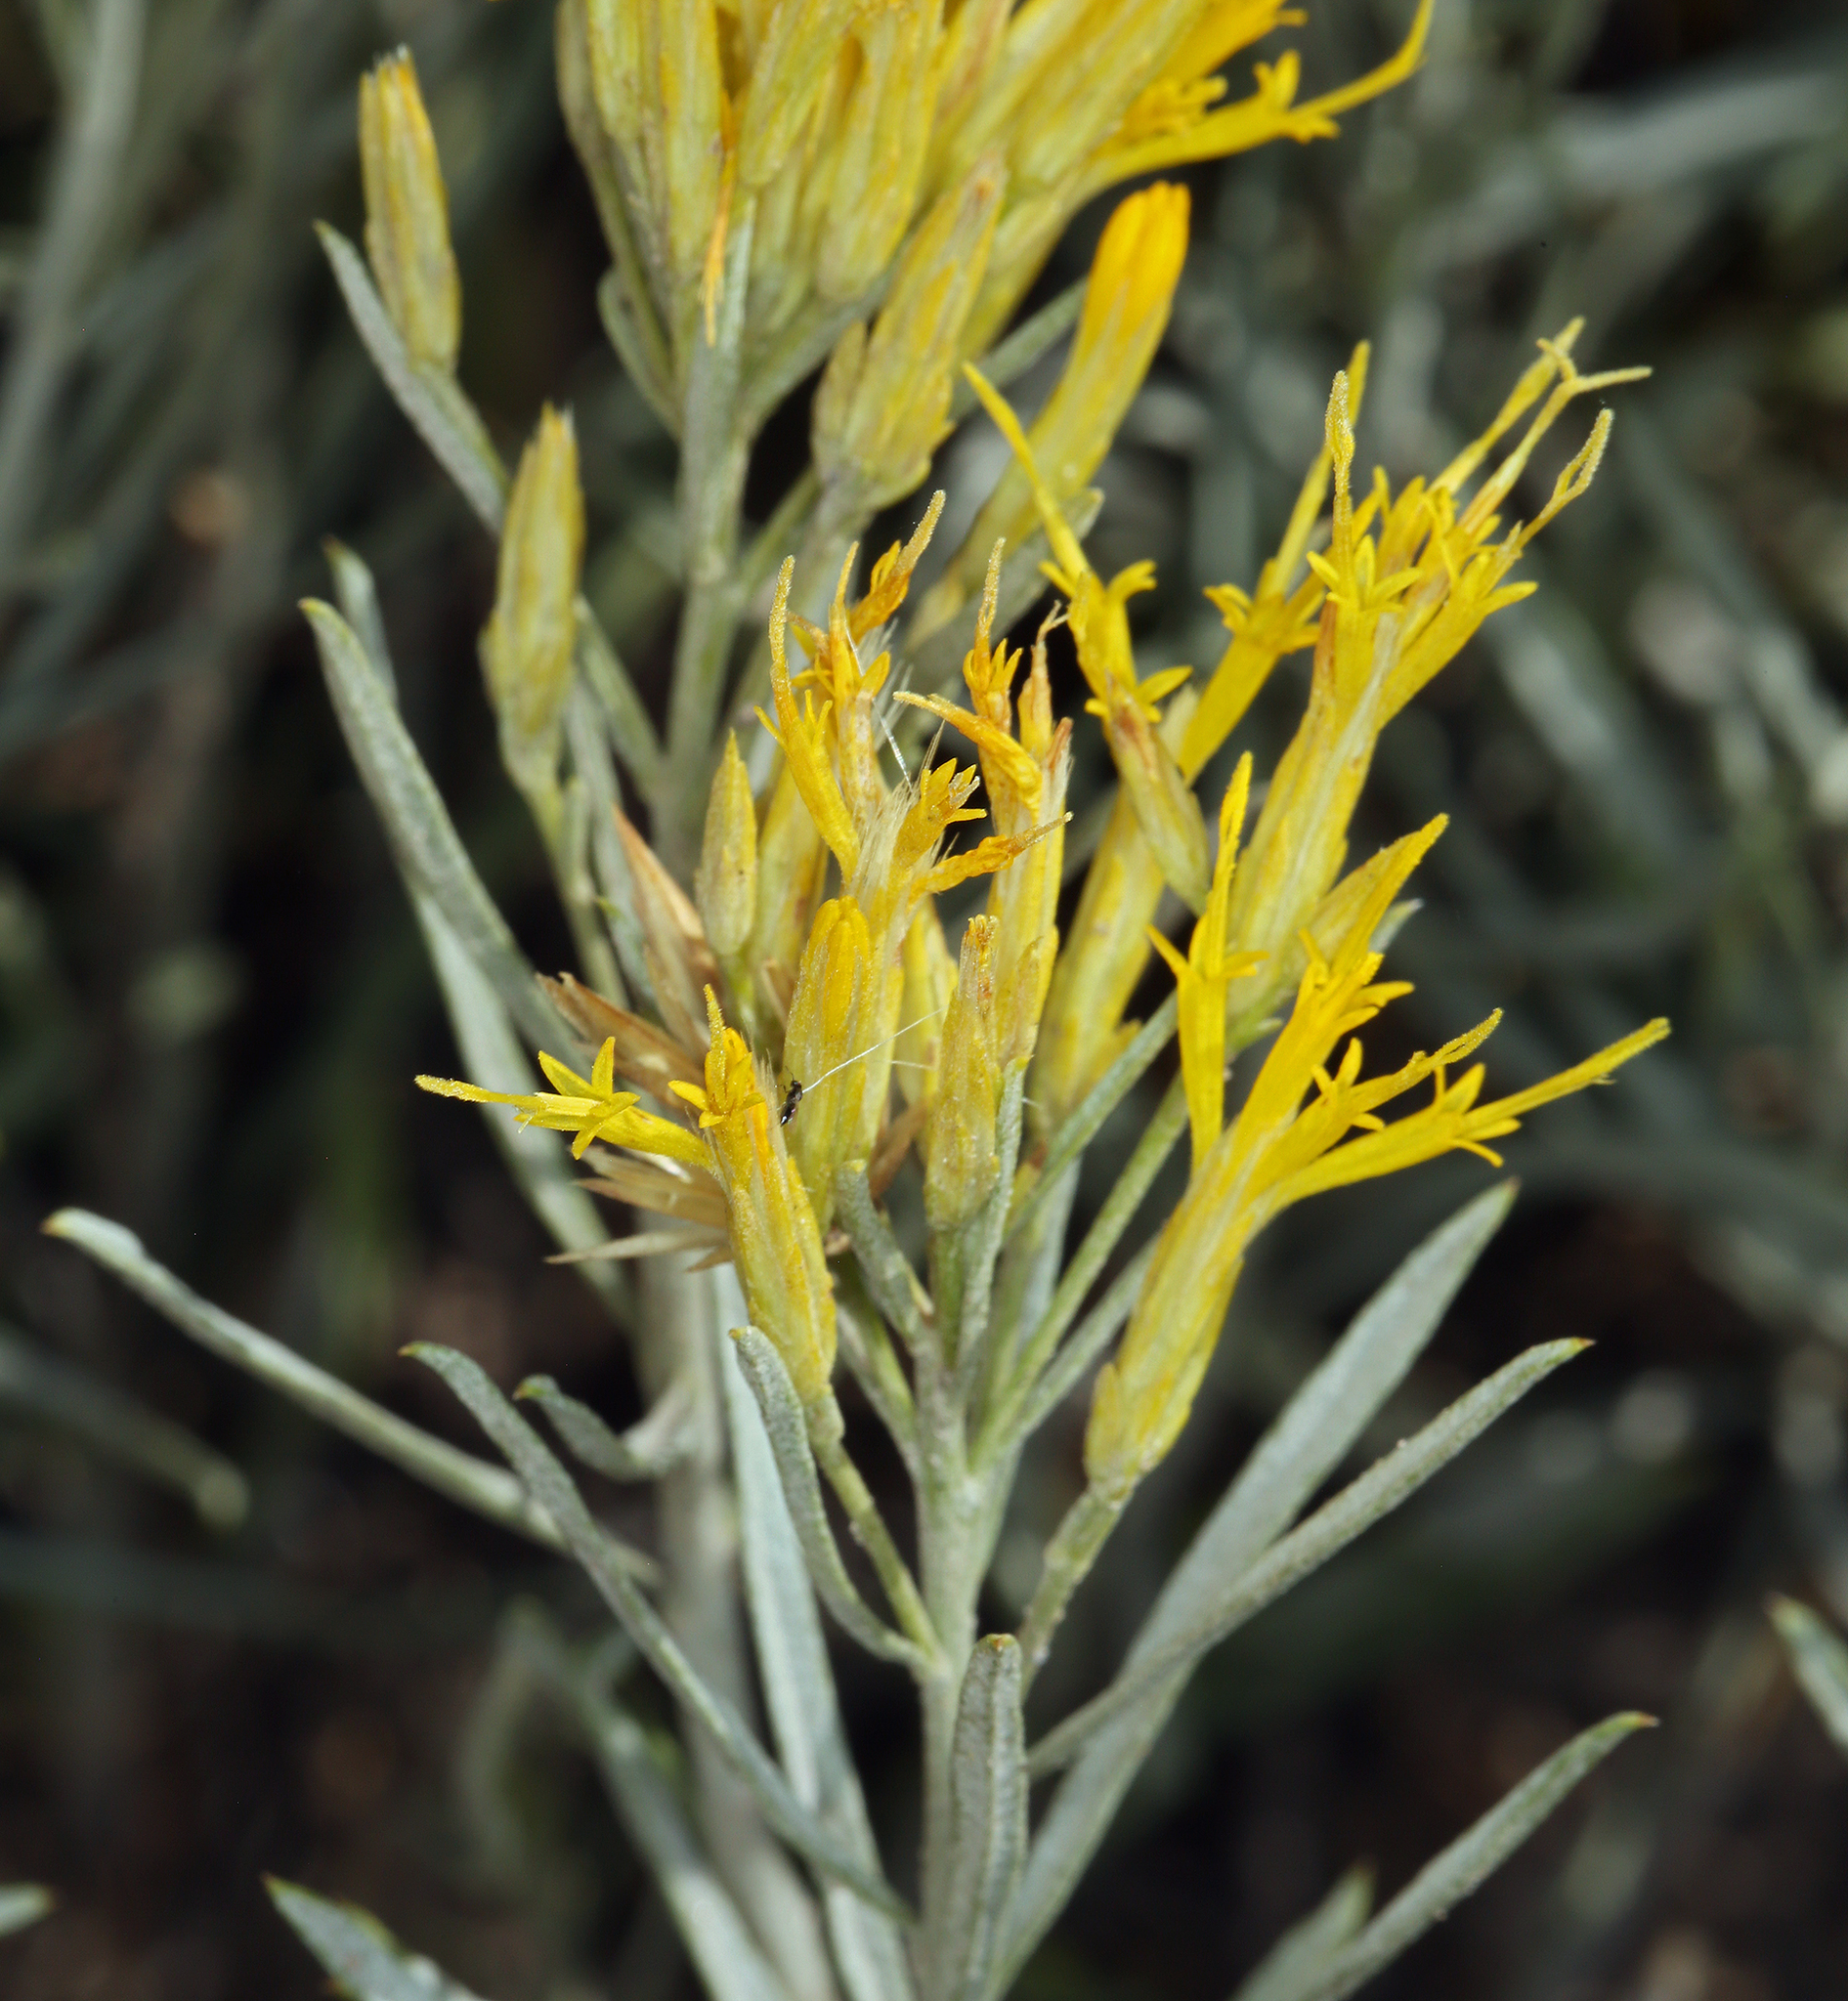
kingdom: Plantae
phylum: Tracheophyta
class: Magnoliopsida
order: Asterales
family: Asteraceae
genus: Ericameria
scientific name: Ericameria nauseosa
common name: Rubber rabbitbrush
